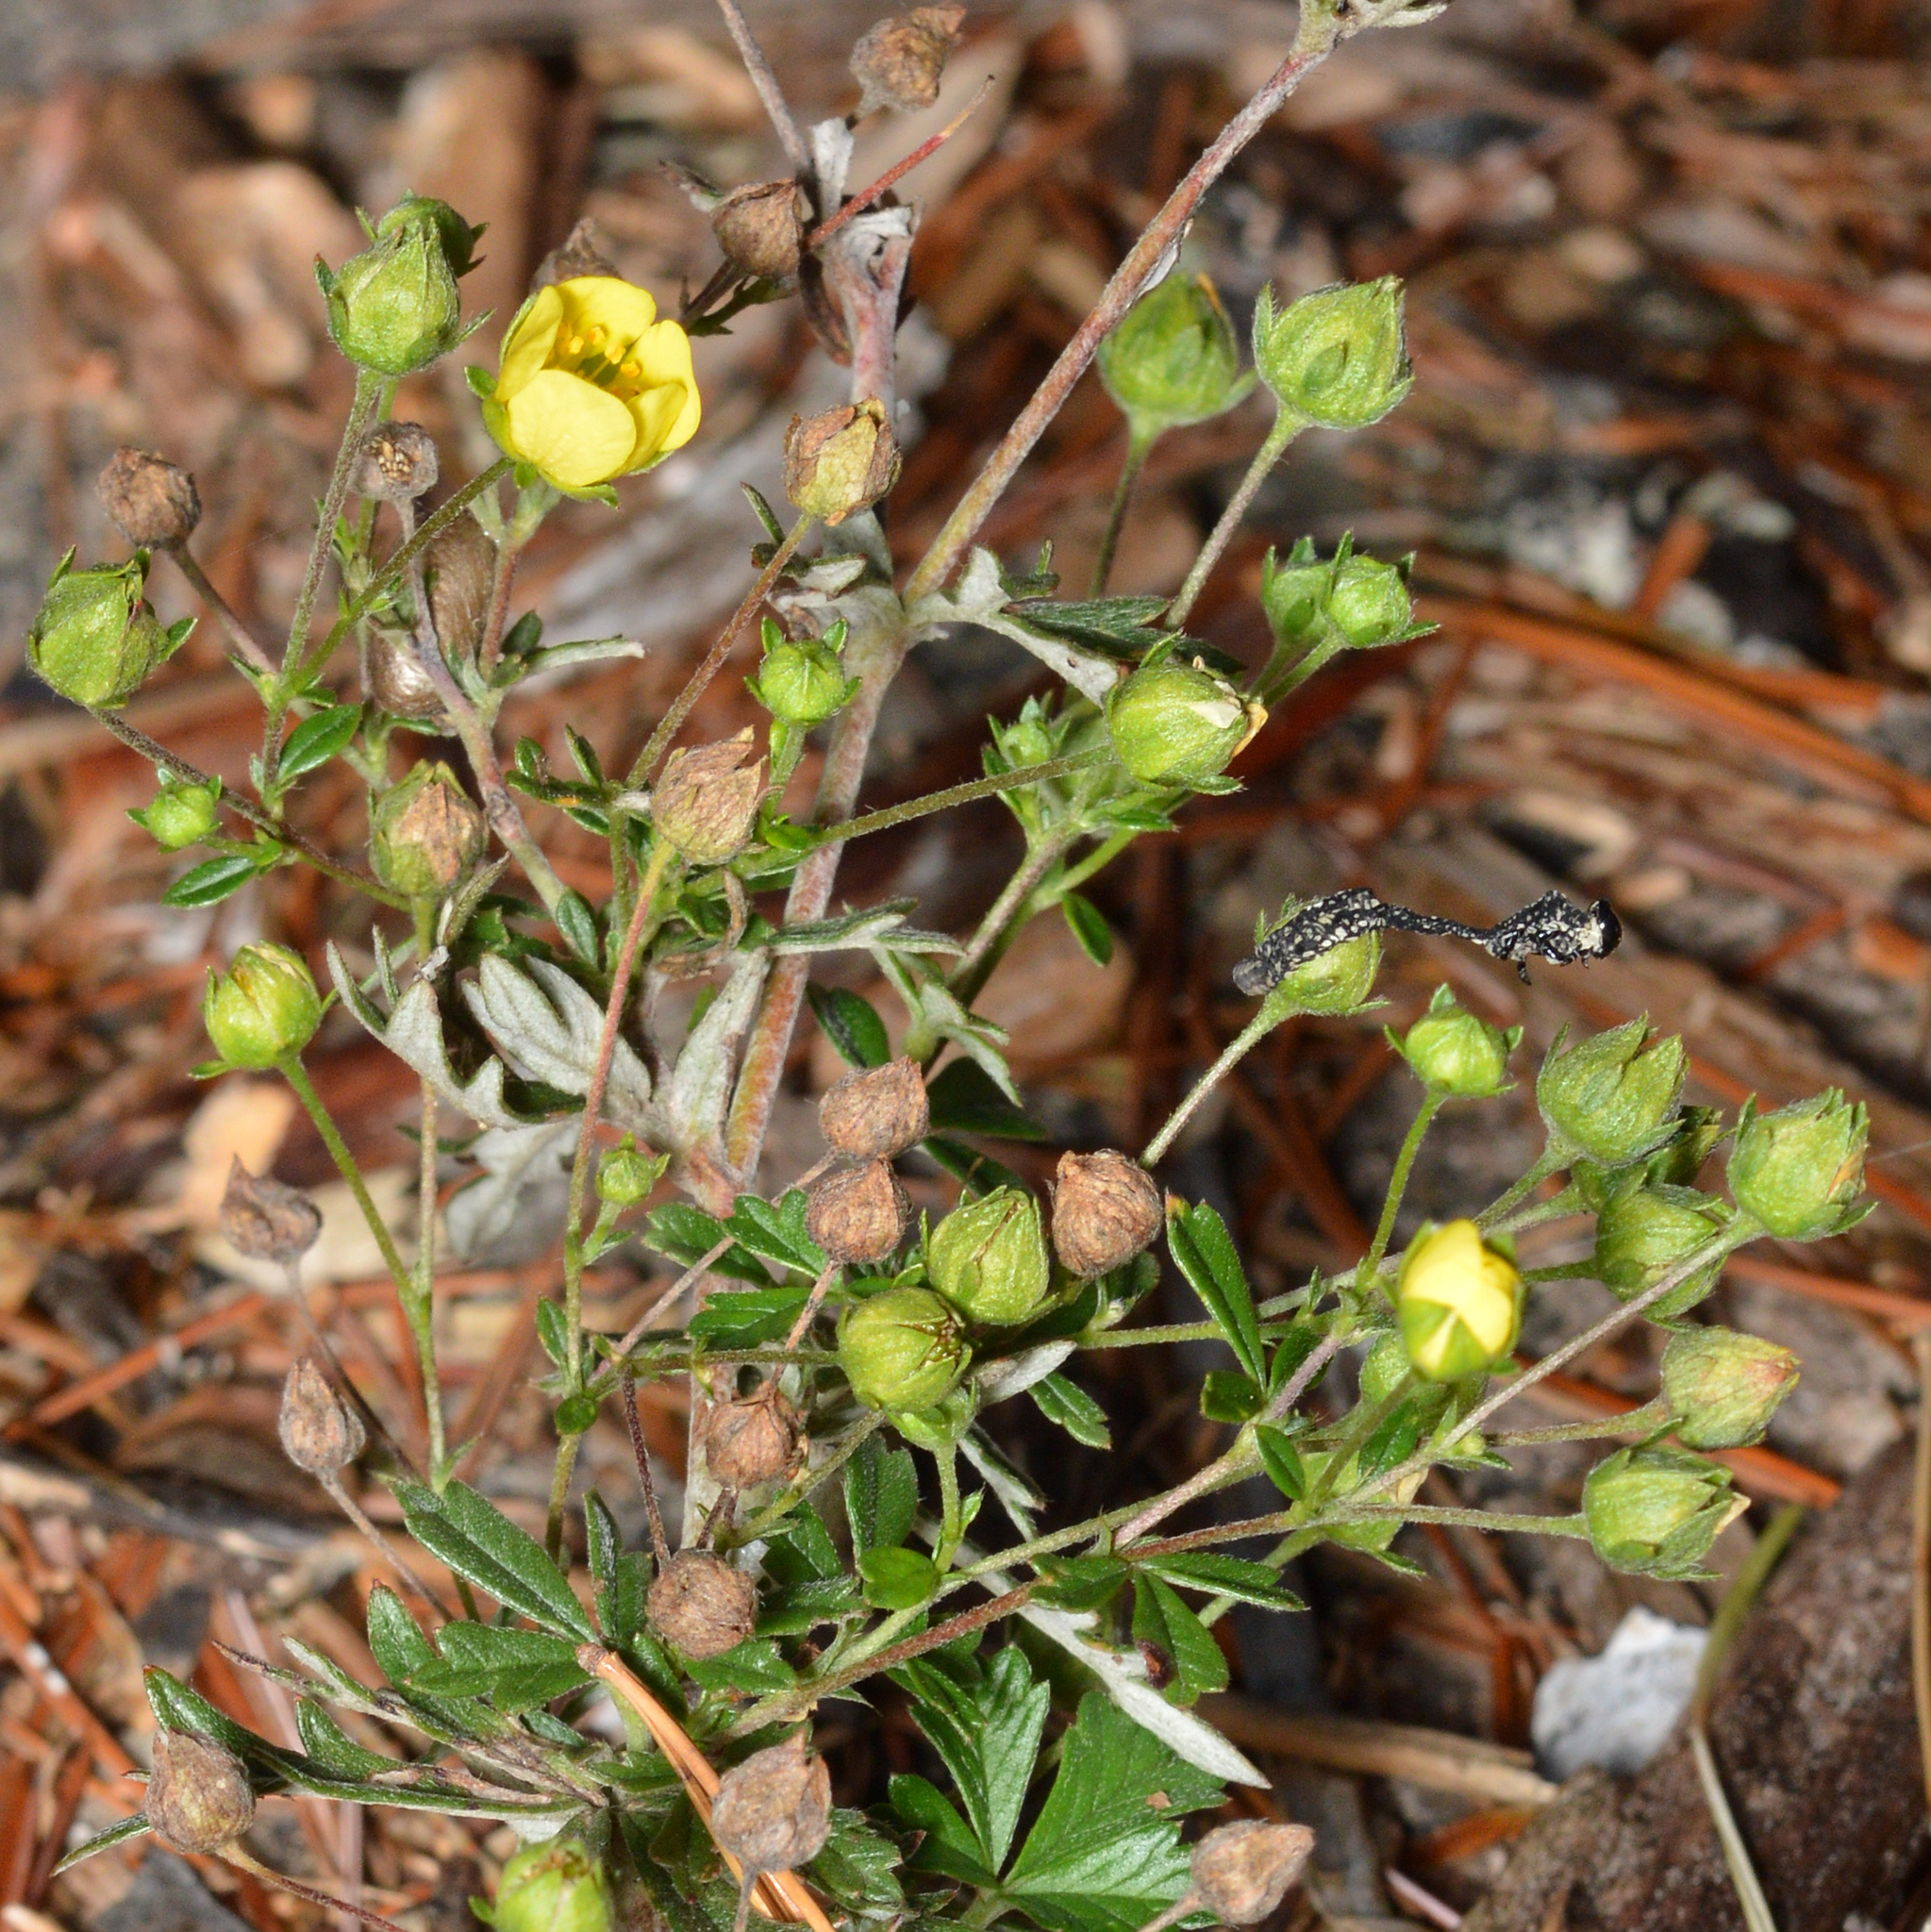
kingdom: Plantae
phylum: Tracheophyta
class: Magnoliopsida
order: Rosales
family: Rosaceae
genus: Potentilla
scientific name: Potentilla argentea
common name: Hoary cinquefoil
